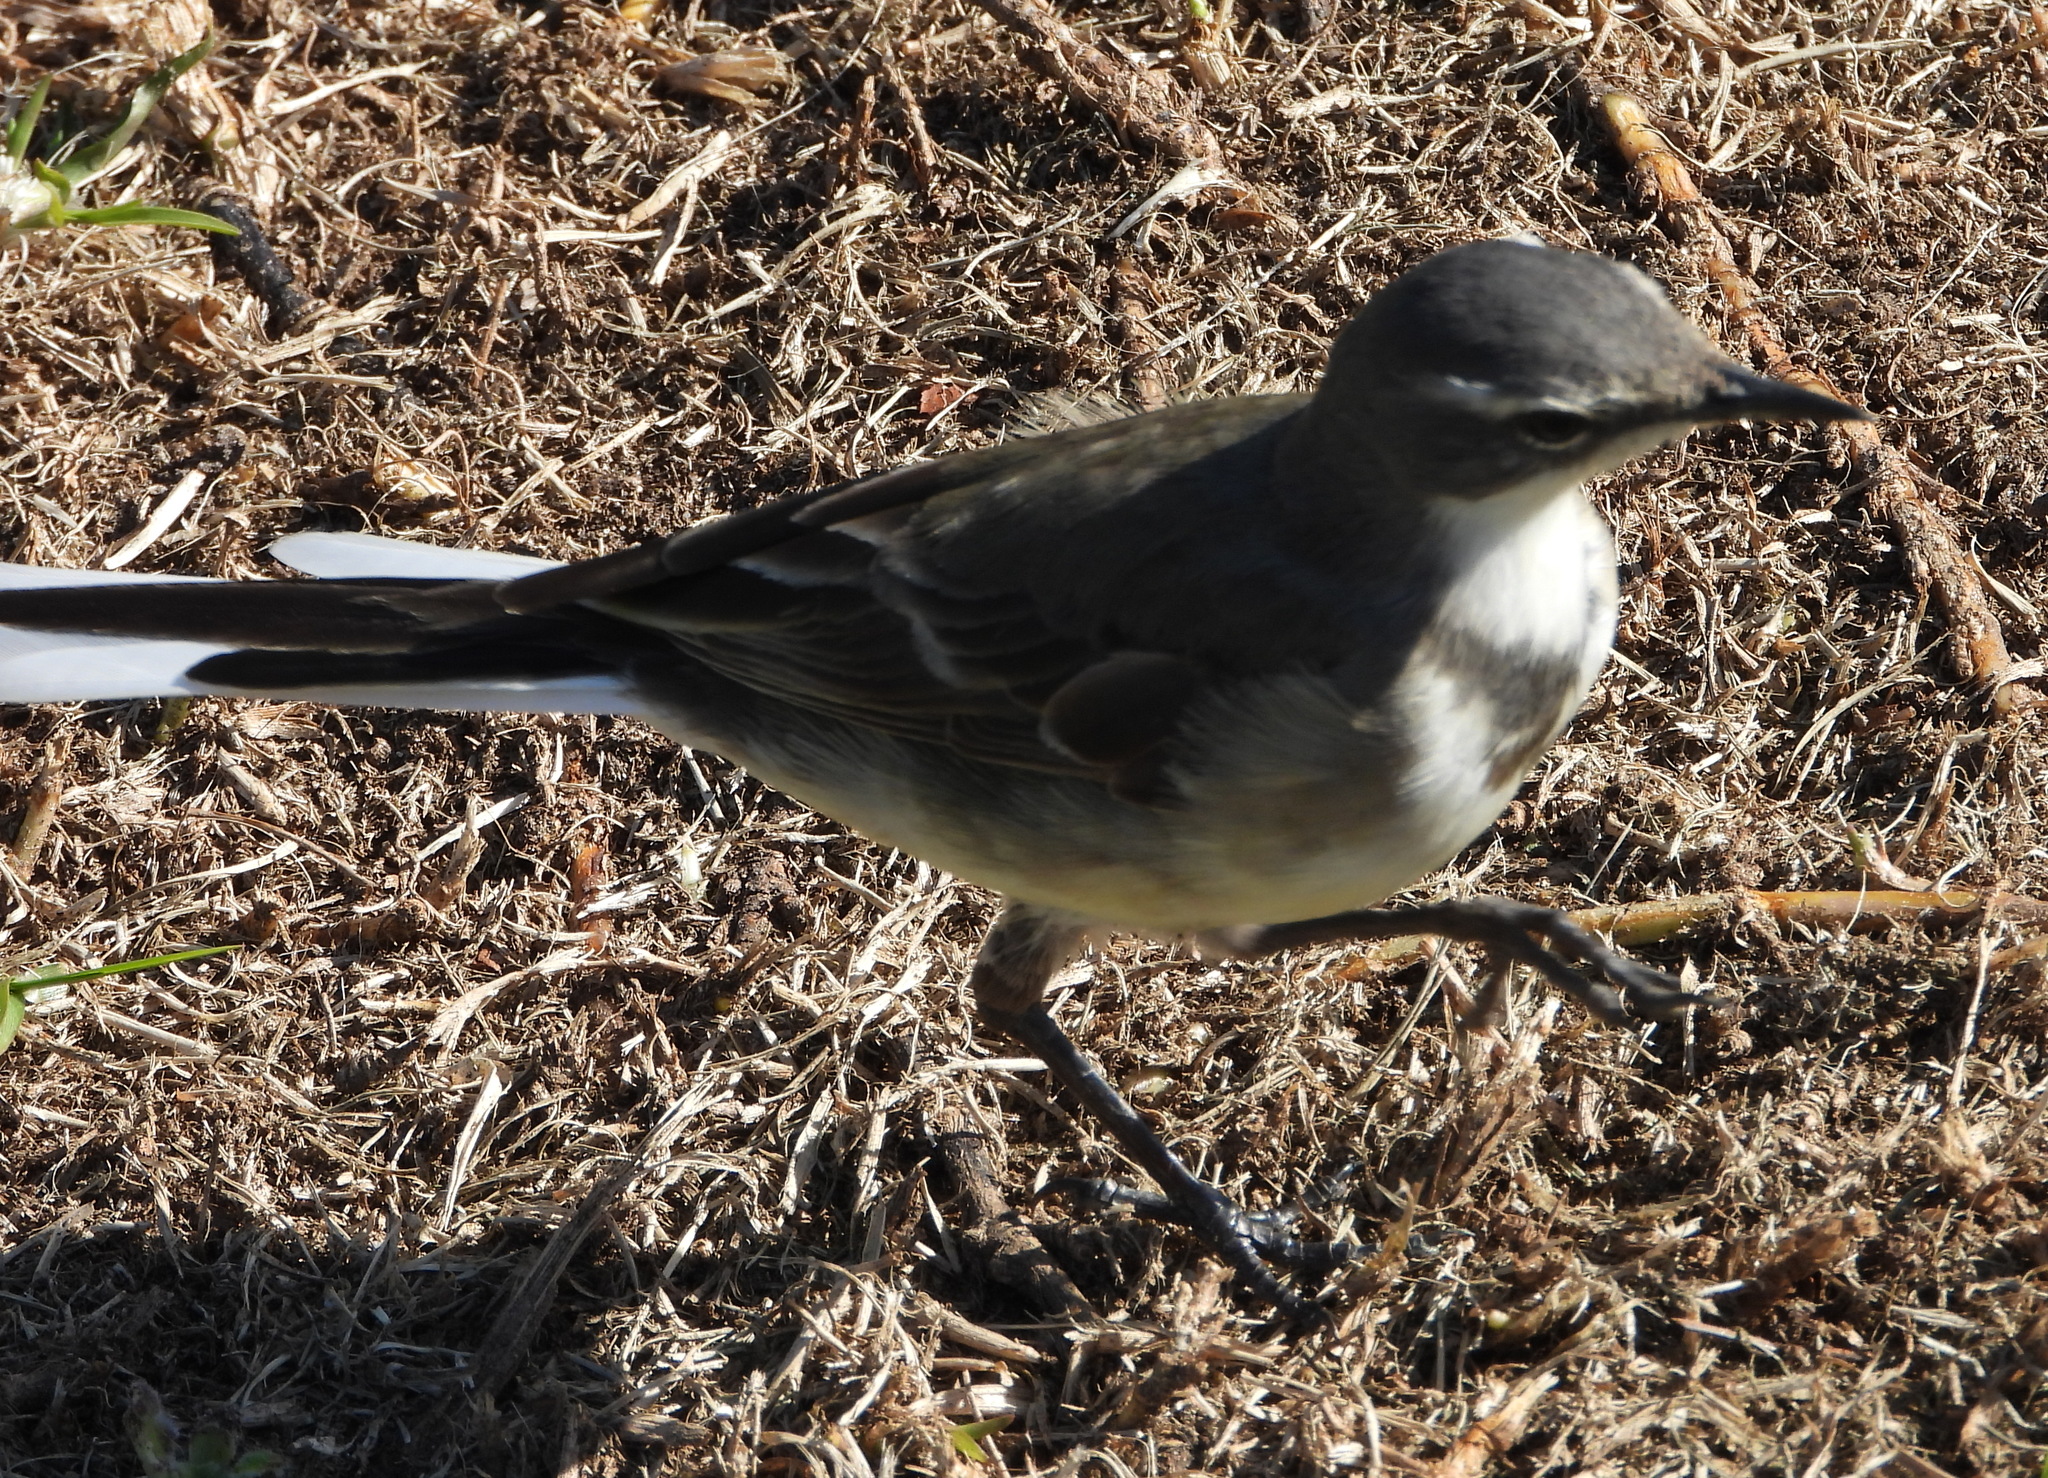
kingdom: Animalia
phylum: Chordata
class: Aves
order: Passeriformes
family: Motacillidae
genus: Motacilla
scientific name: Motacilla capensis
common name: Cape wagtail
